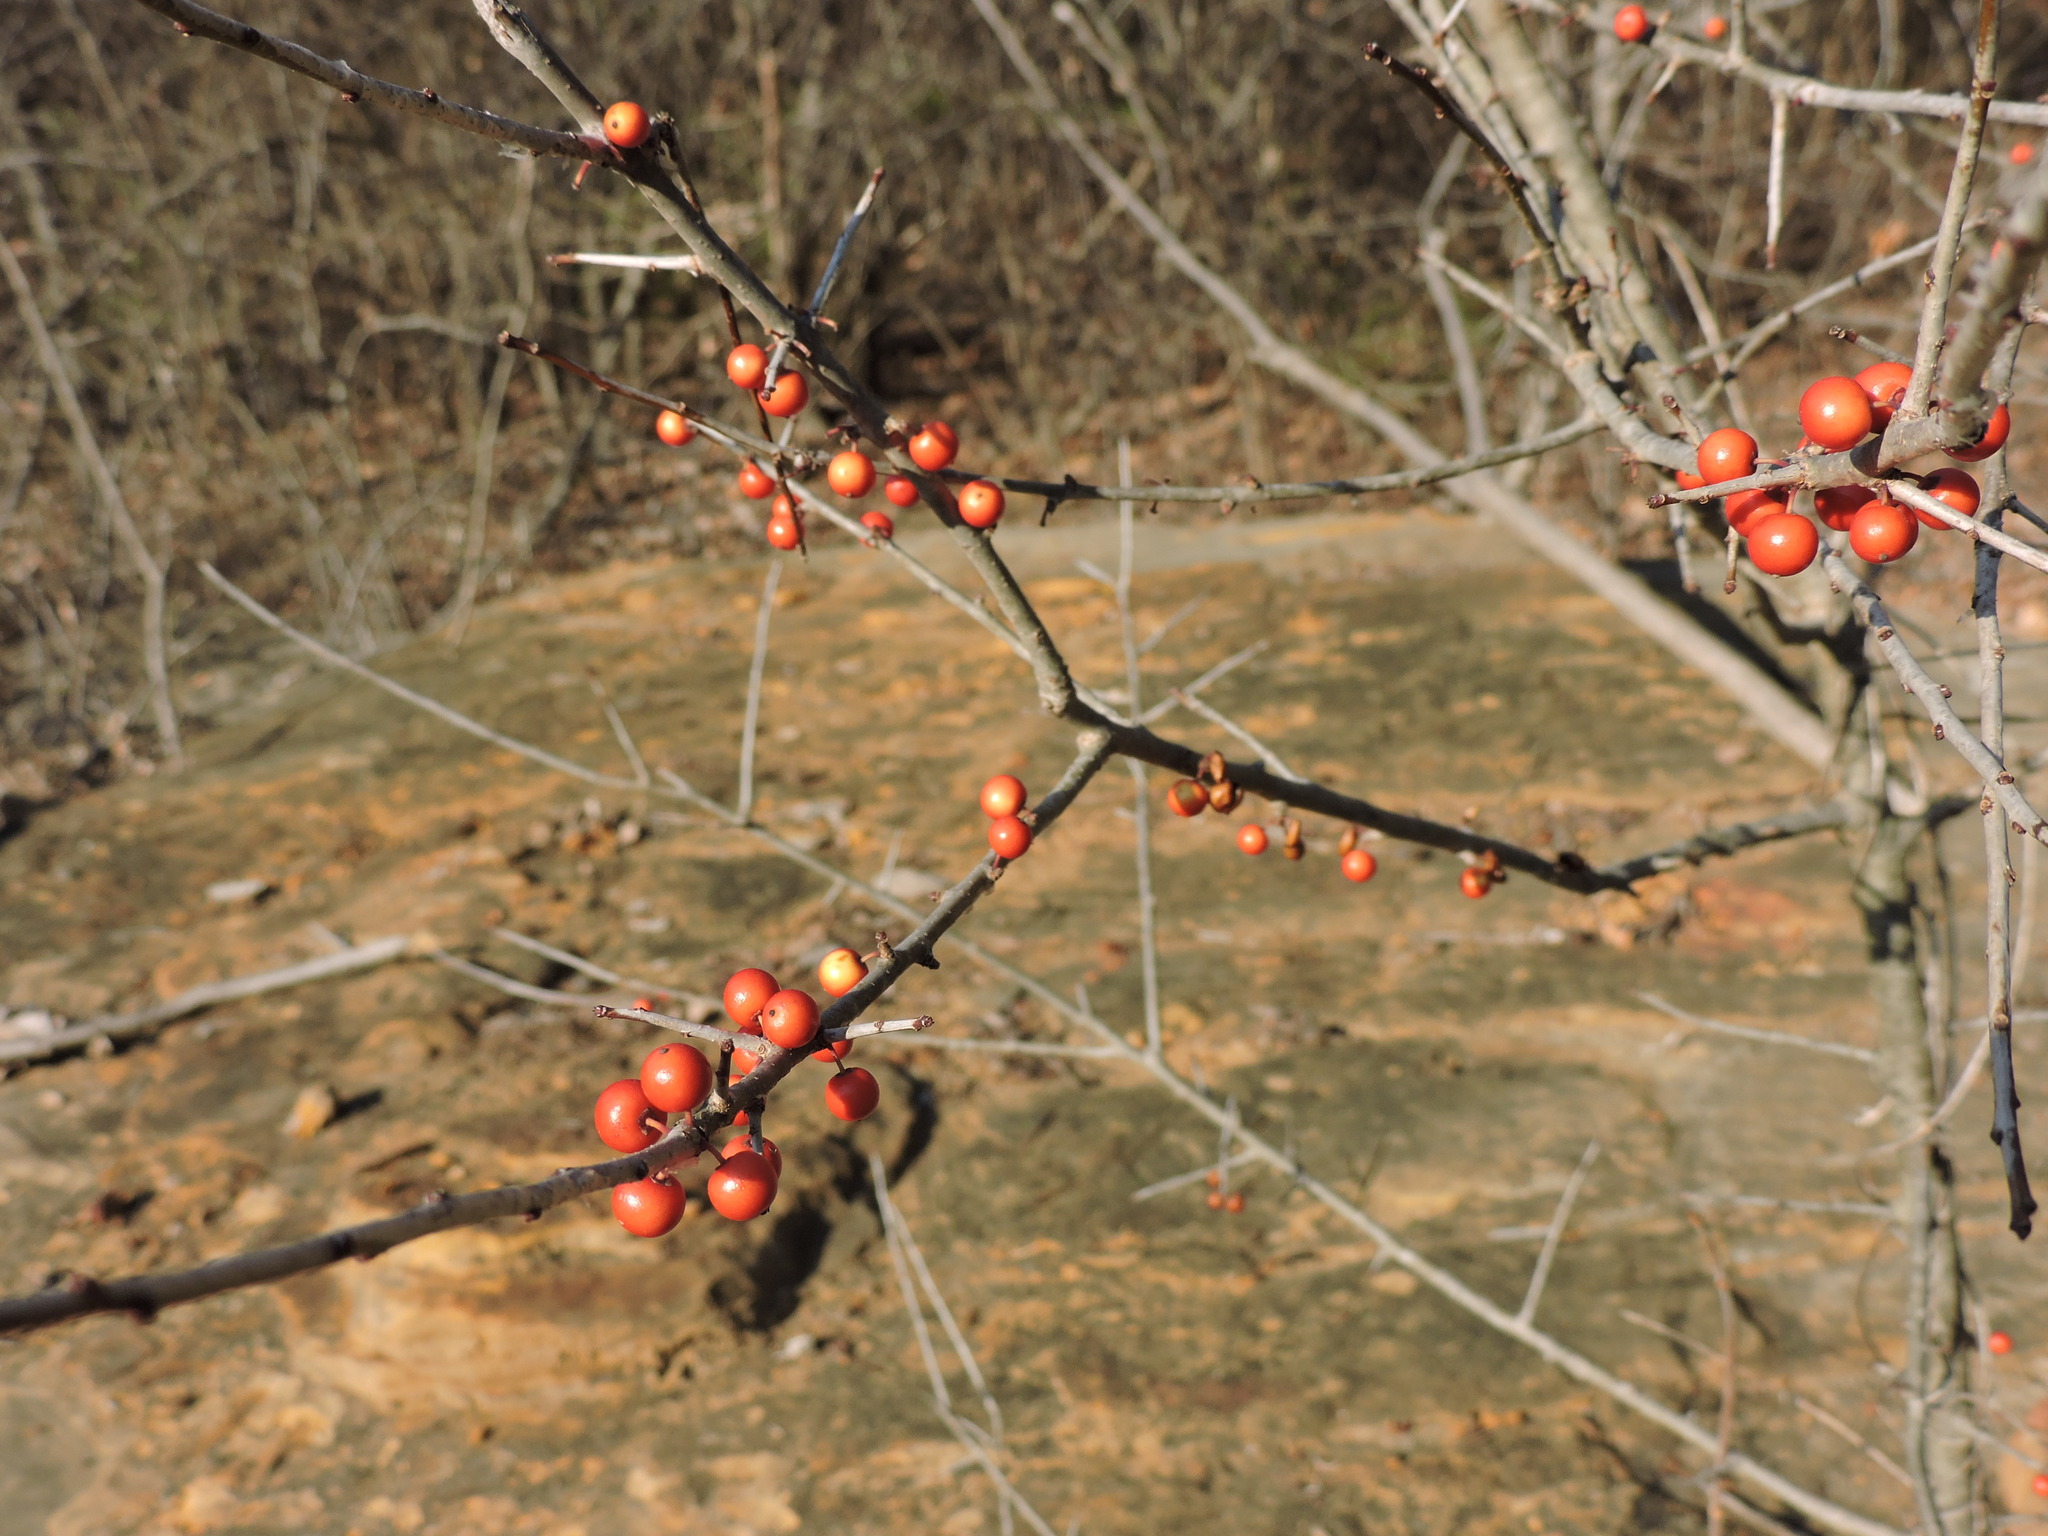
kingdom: Plantae
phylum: Tracheophyta
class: Magnoliopsida
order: Aquifoliales
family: Aquifoliaceae
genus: Ilex
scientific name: Ilex decidua
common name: Possum-haw
